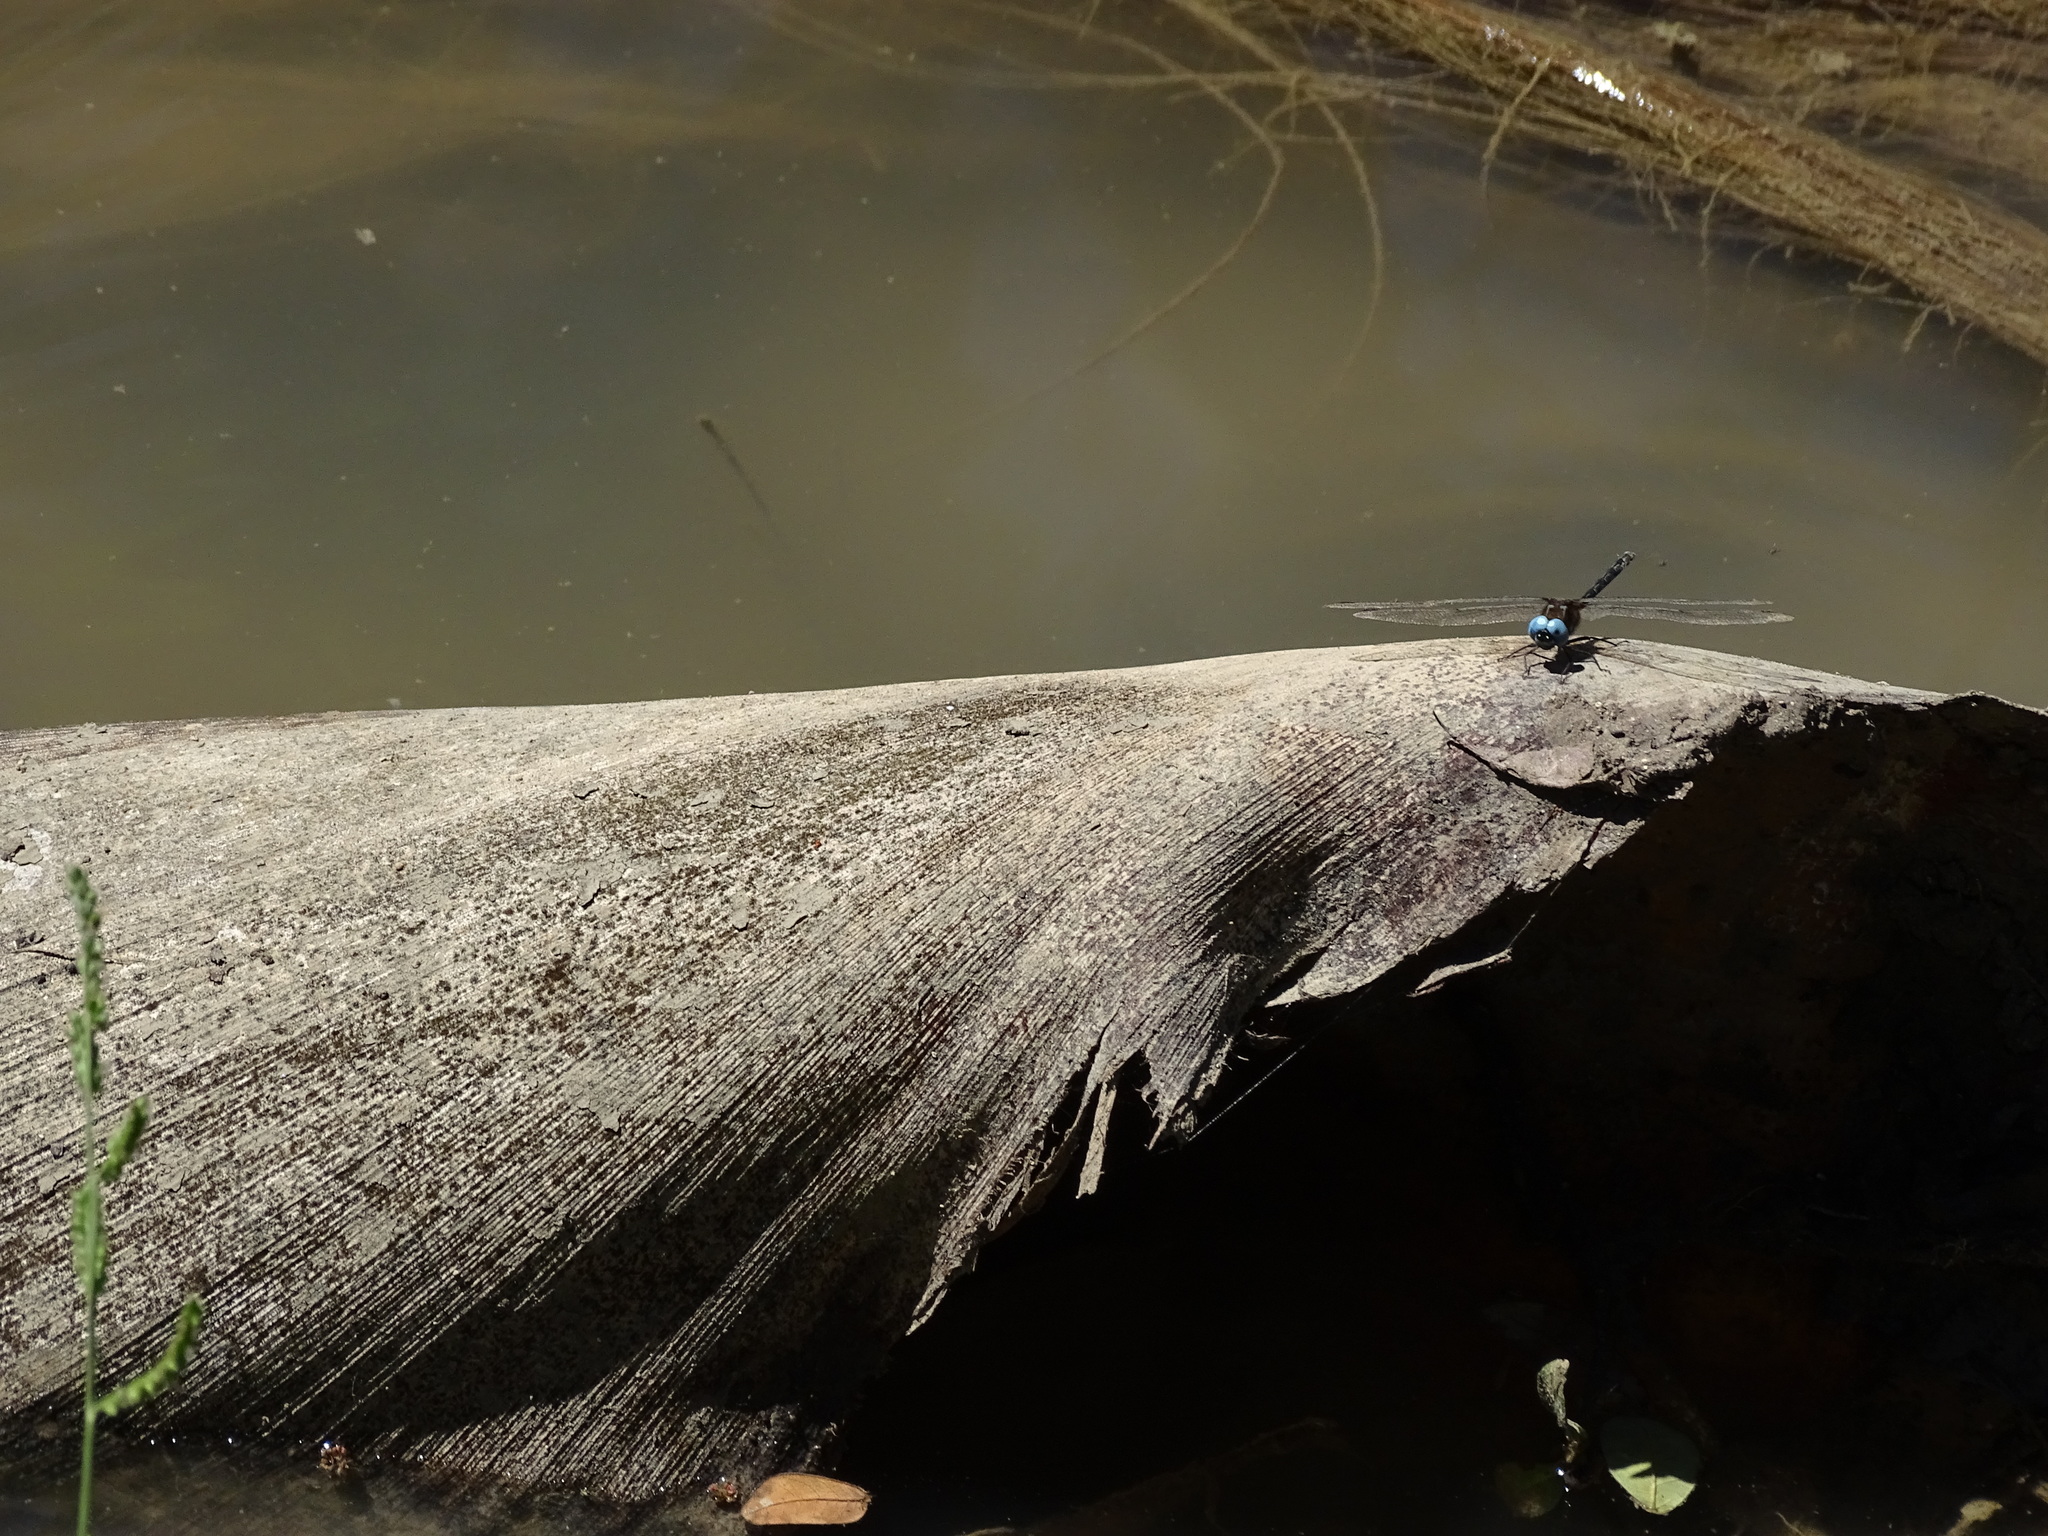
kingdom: Animalia
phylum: Arthropoda
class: Insecta
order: Odonata
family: Libellulidae
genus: Macrothemis
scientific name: Macrothemis celeno
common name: Antillean sylph
